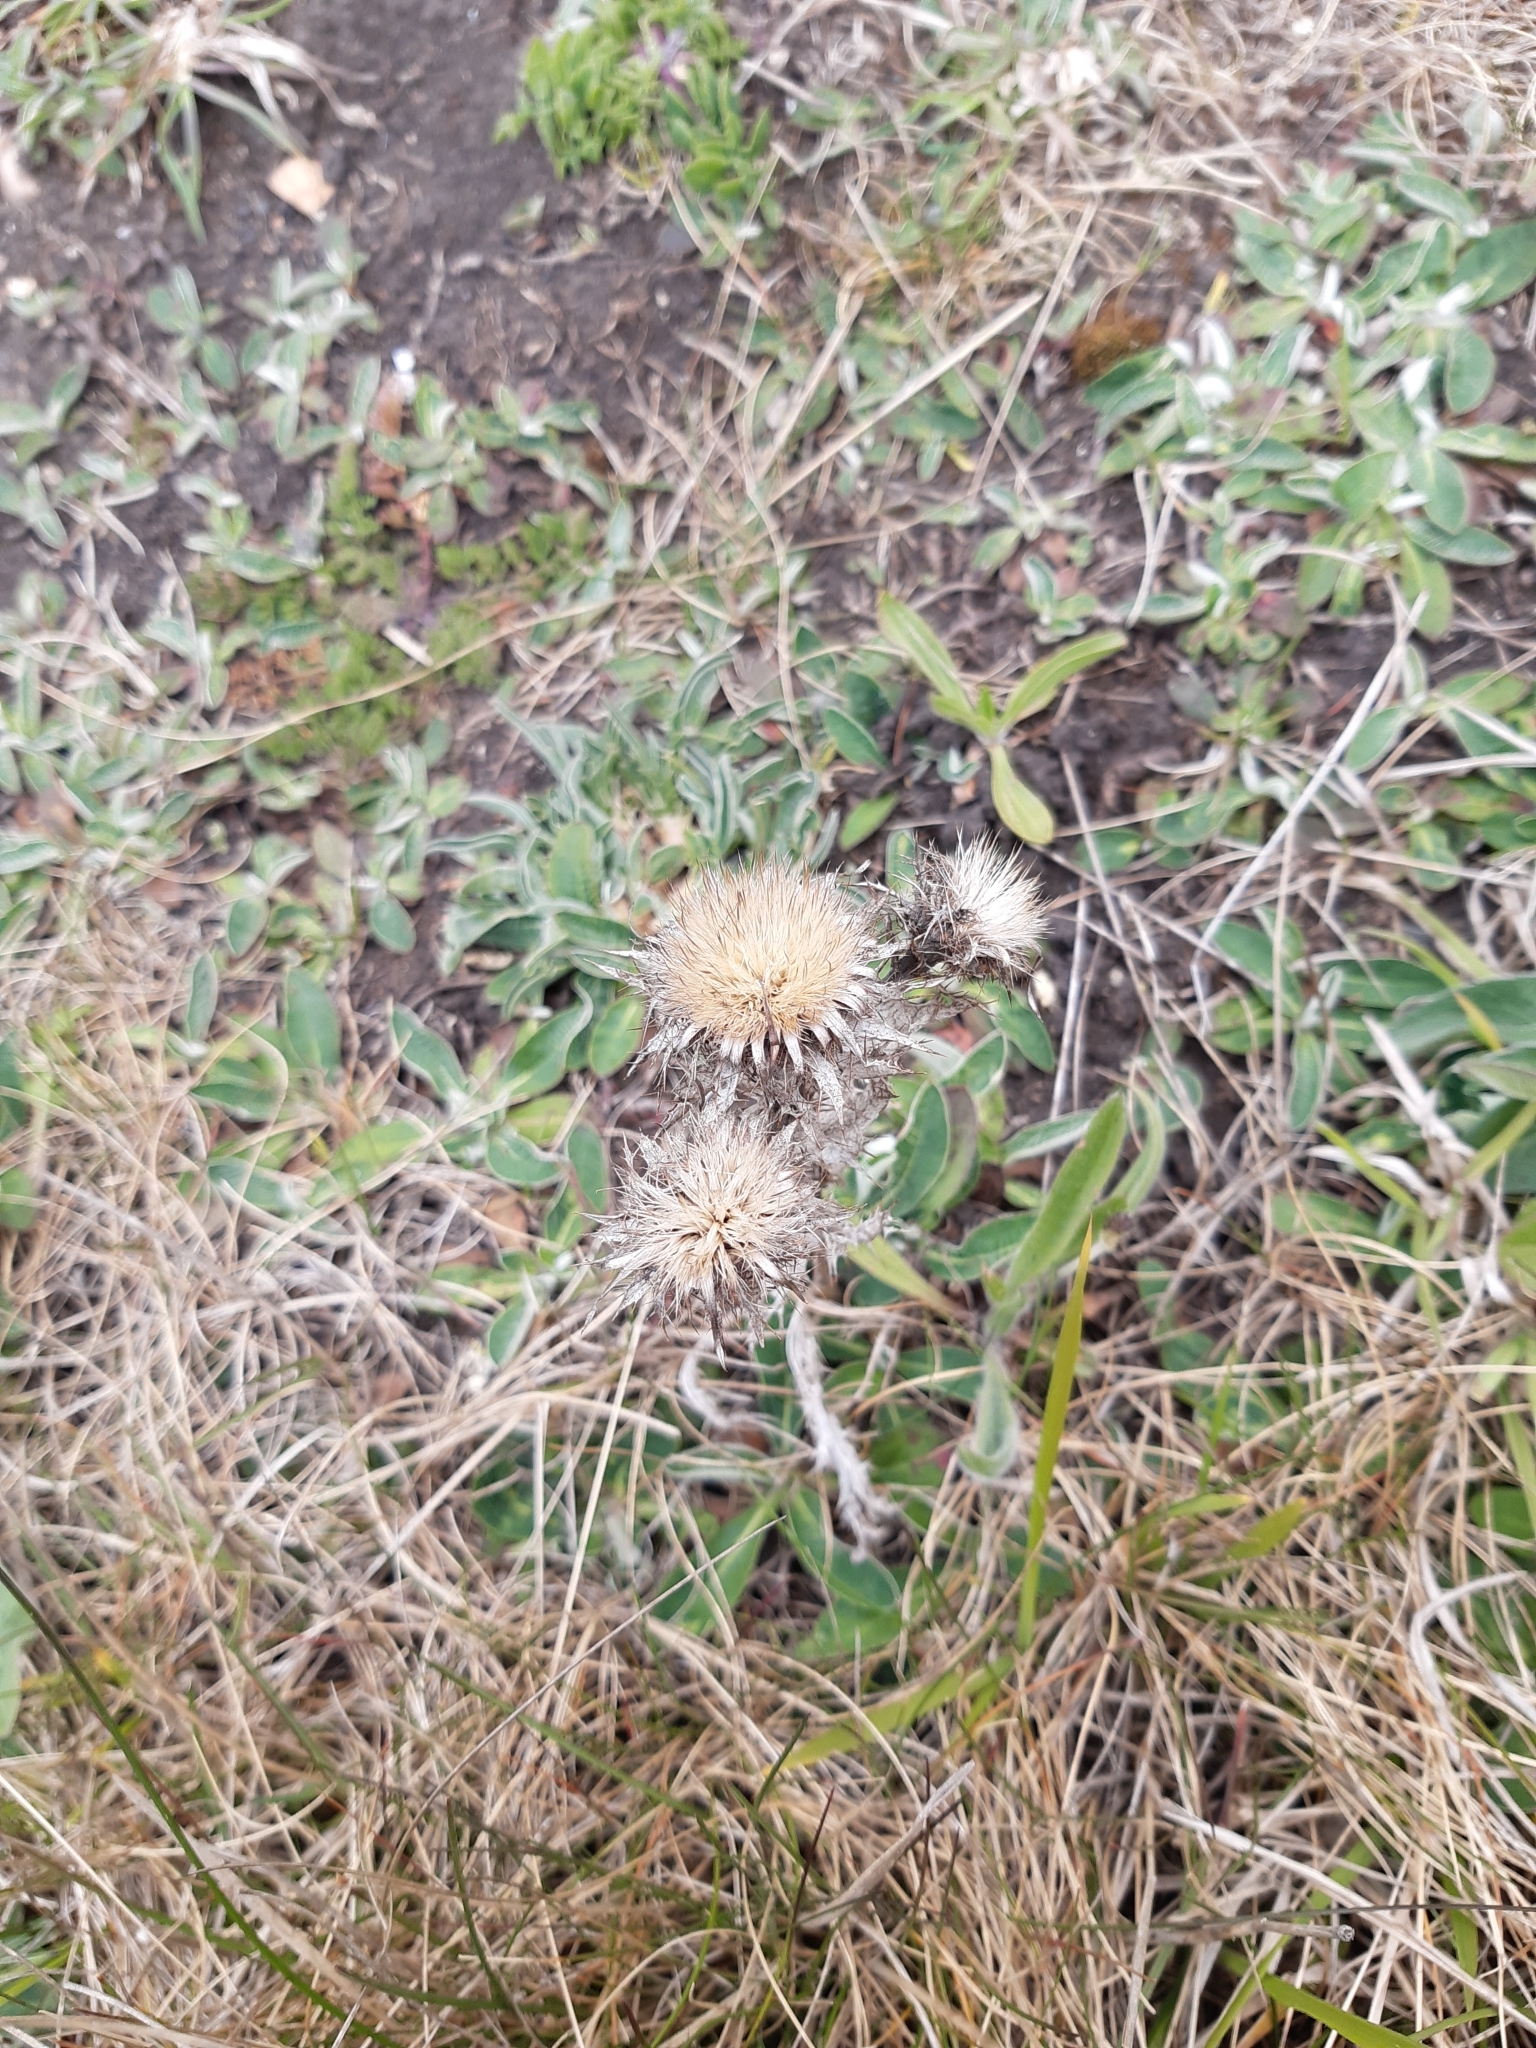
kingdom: Plantae
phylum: Tracheophyta
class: Magnoliopsida
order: Asterales
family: Asteraceae
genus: Carlina
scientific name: Carlina vulgaris
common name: Carline thistle
